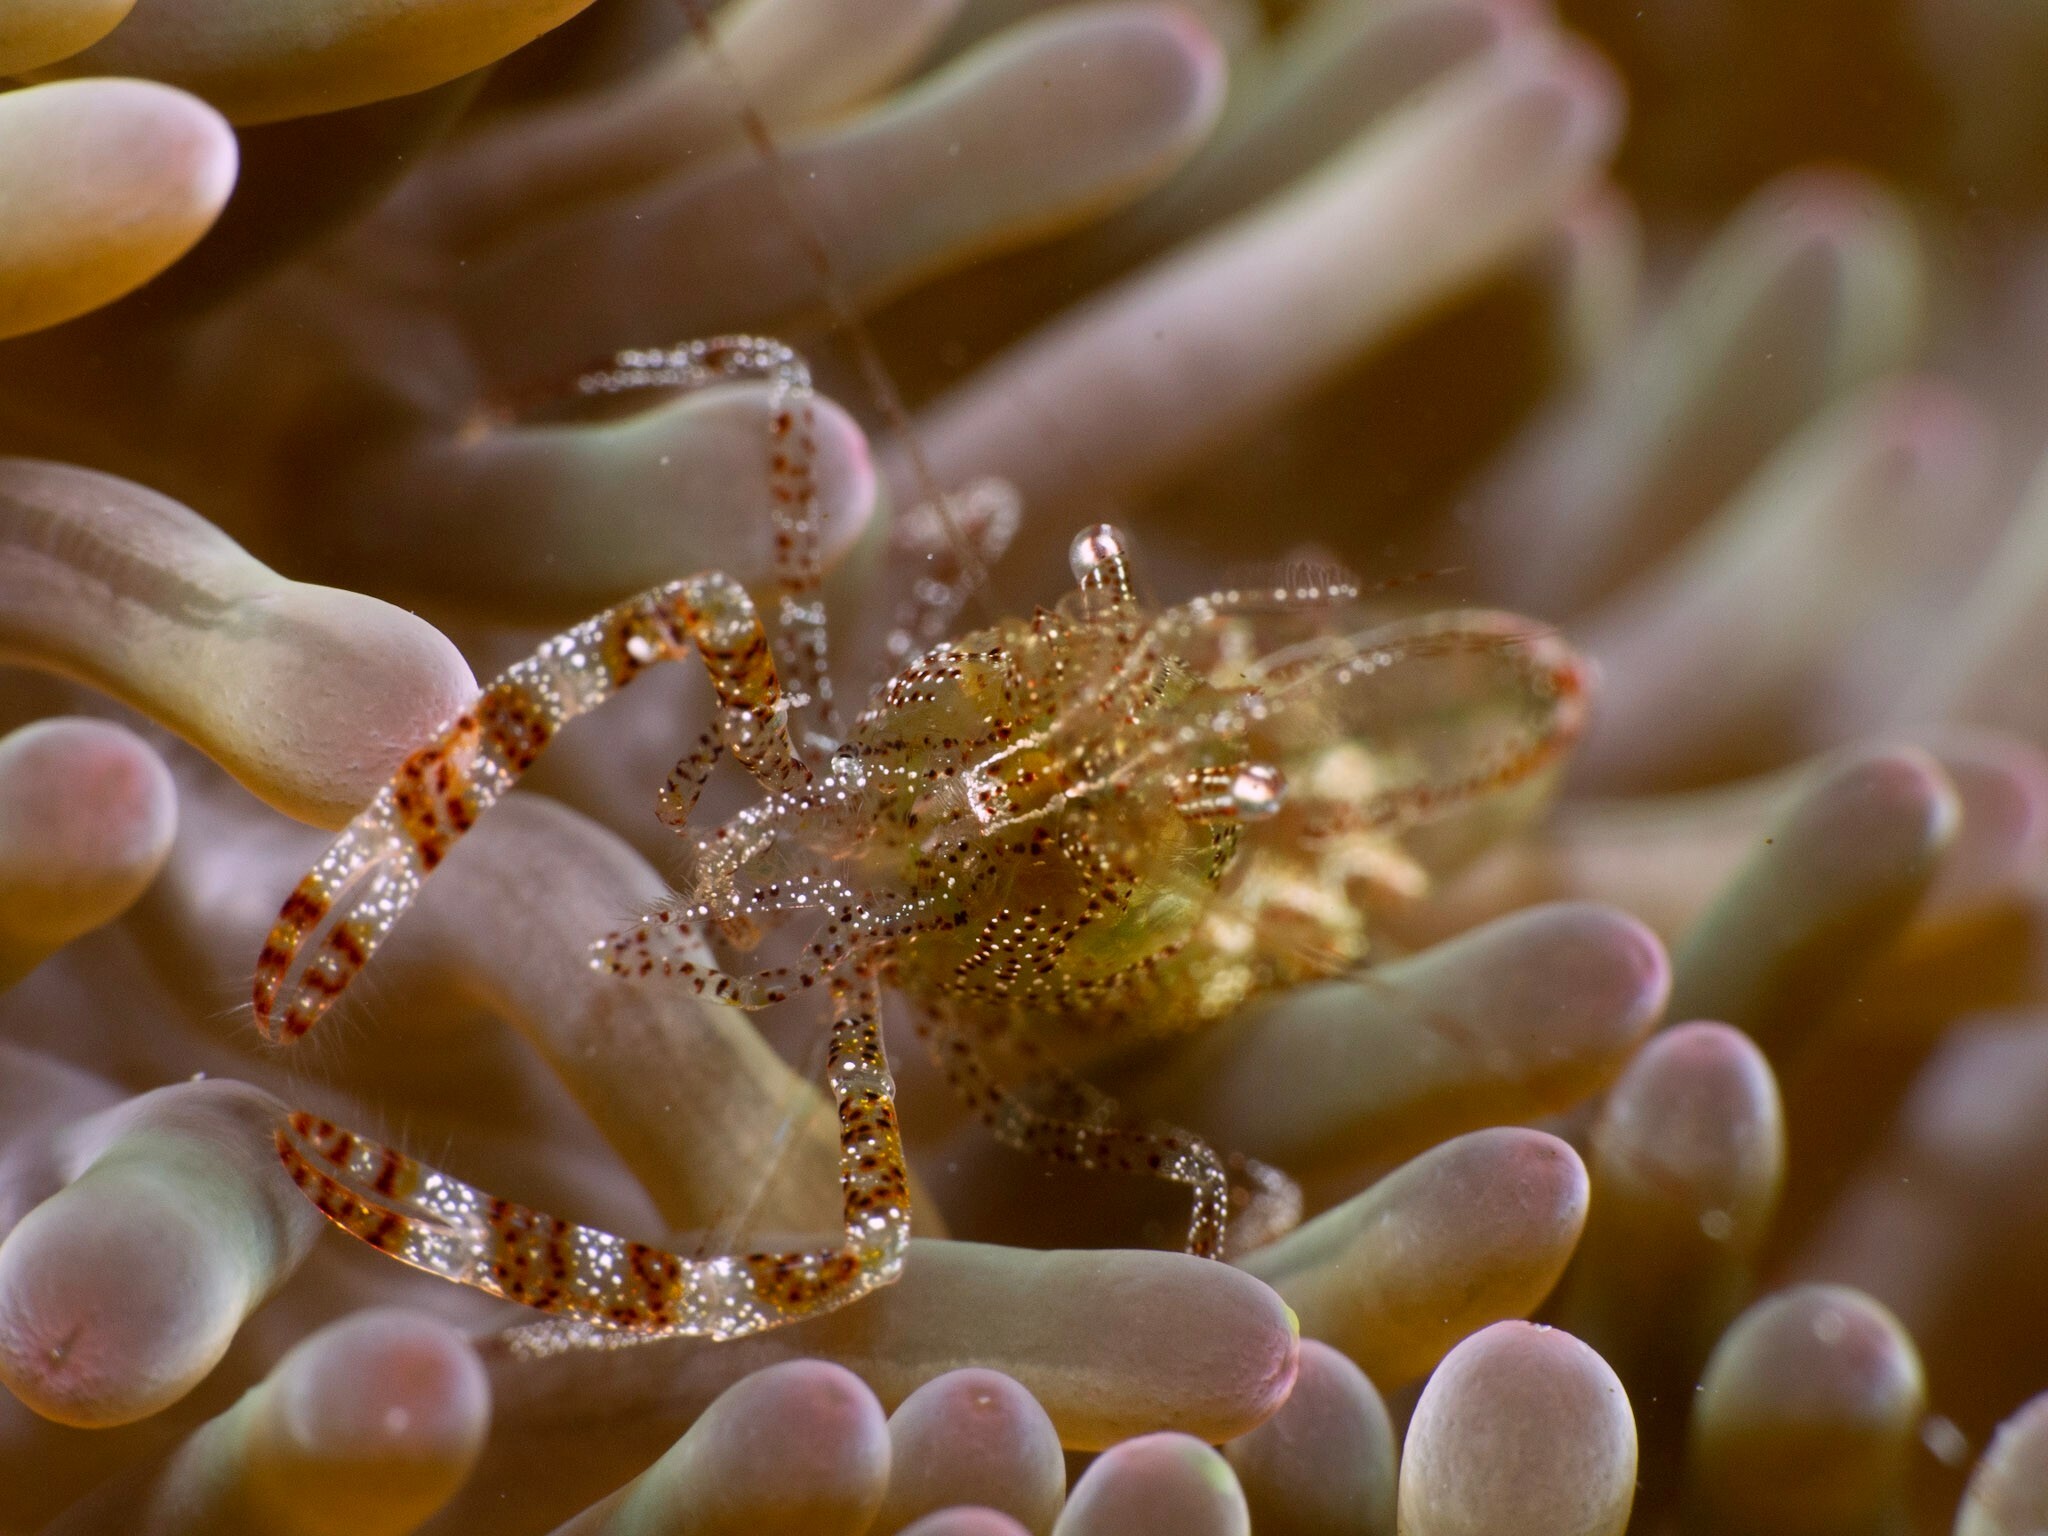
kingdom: Animalia
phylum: Arthropoda
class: Malacostraca
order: Decapoda
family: Palaemonidae
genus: Periclimenes
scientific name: Periclimenes rathbunae
